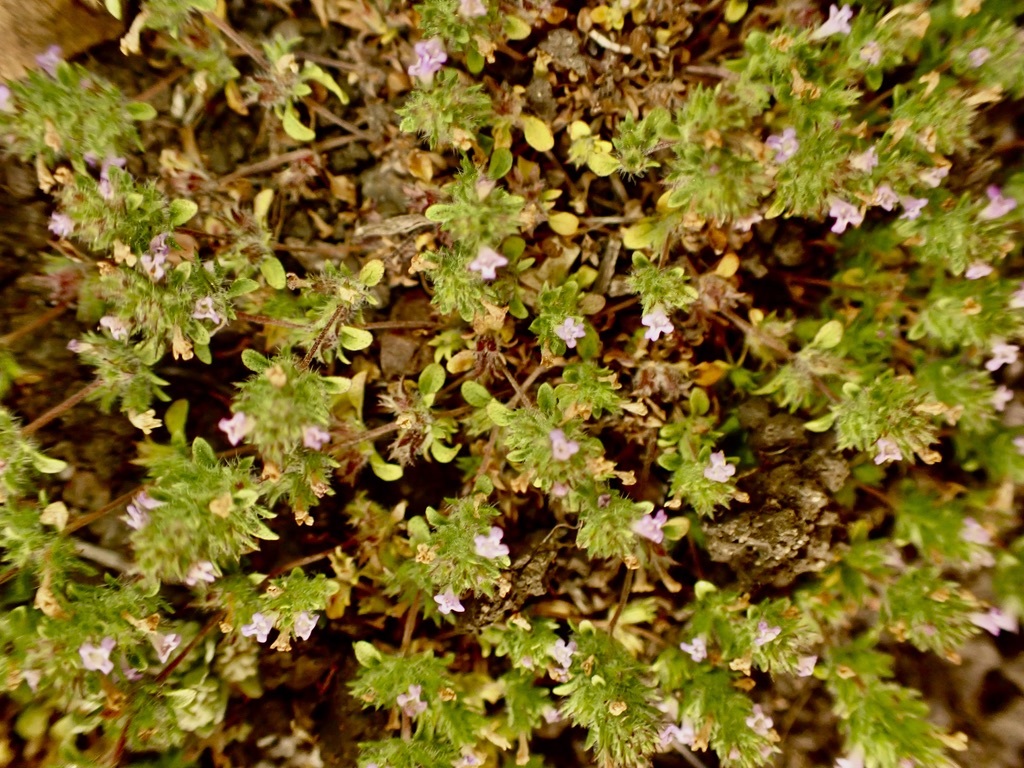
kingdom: Plantae
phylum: Tracheophyta
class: Magnoliopsida
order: Lamiales
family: Lamiaceae
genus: Pogogyne
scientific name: Pogogyne serpylloides
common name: Thymeleaf mesamint
